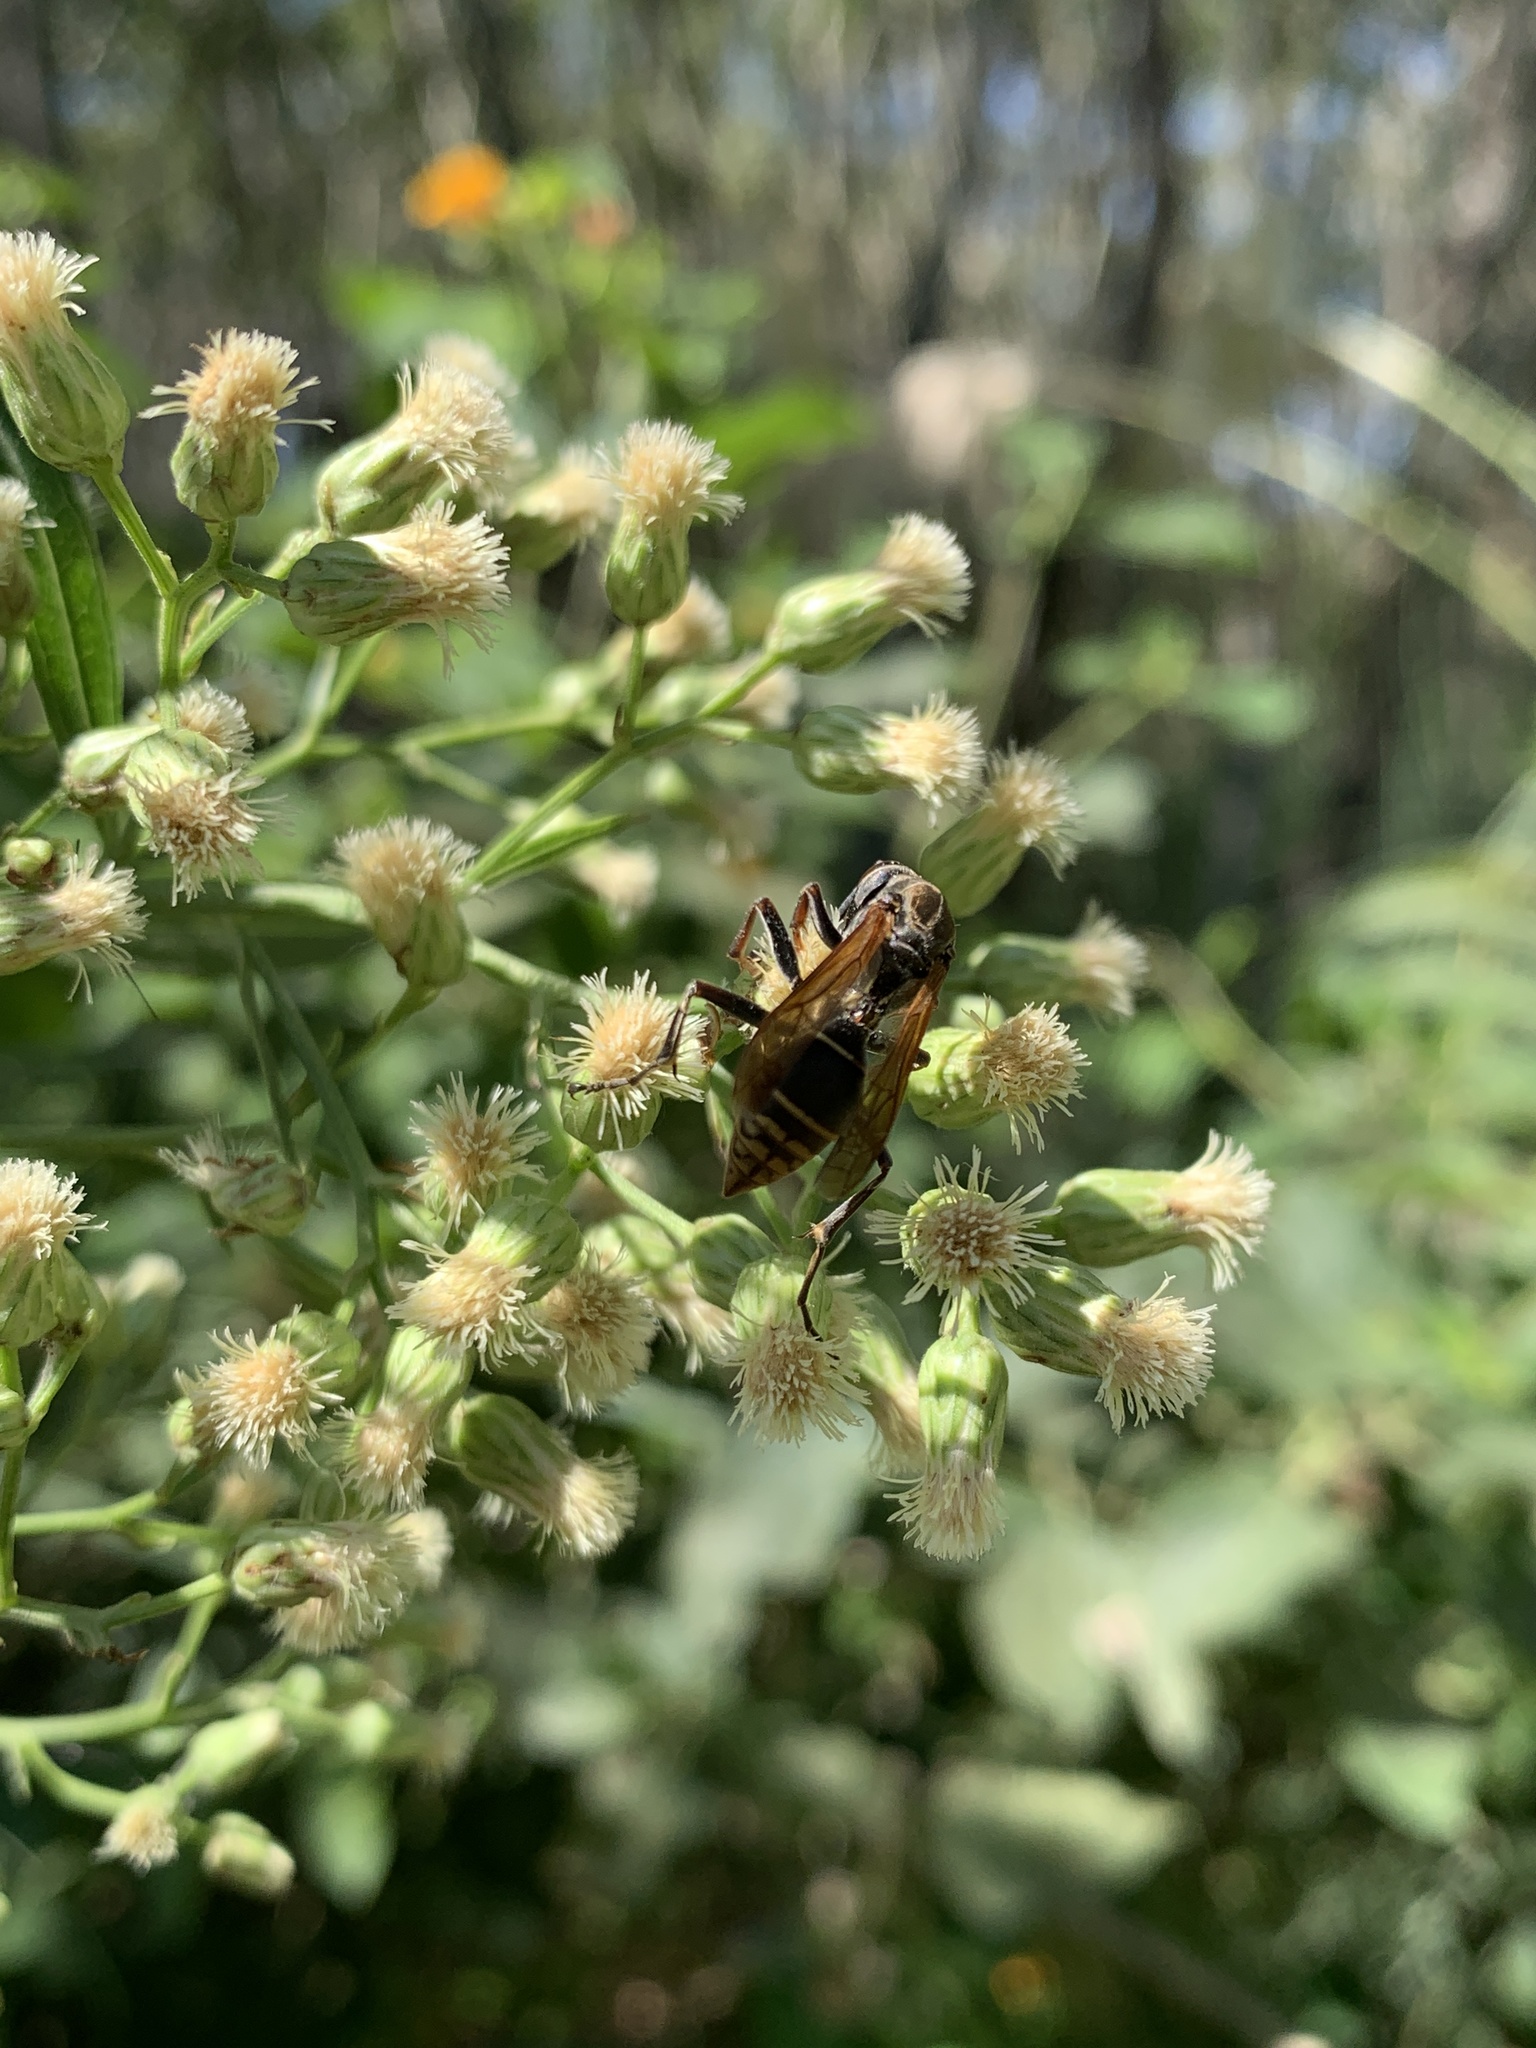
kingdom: Animalia
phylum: Arthropoda
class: Insecta
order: Hymenoptera
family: Eumenidae
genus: Polistes
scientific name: Polistes cinerascens
